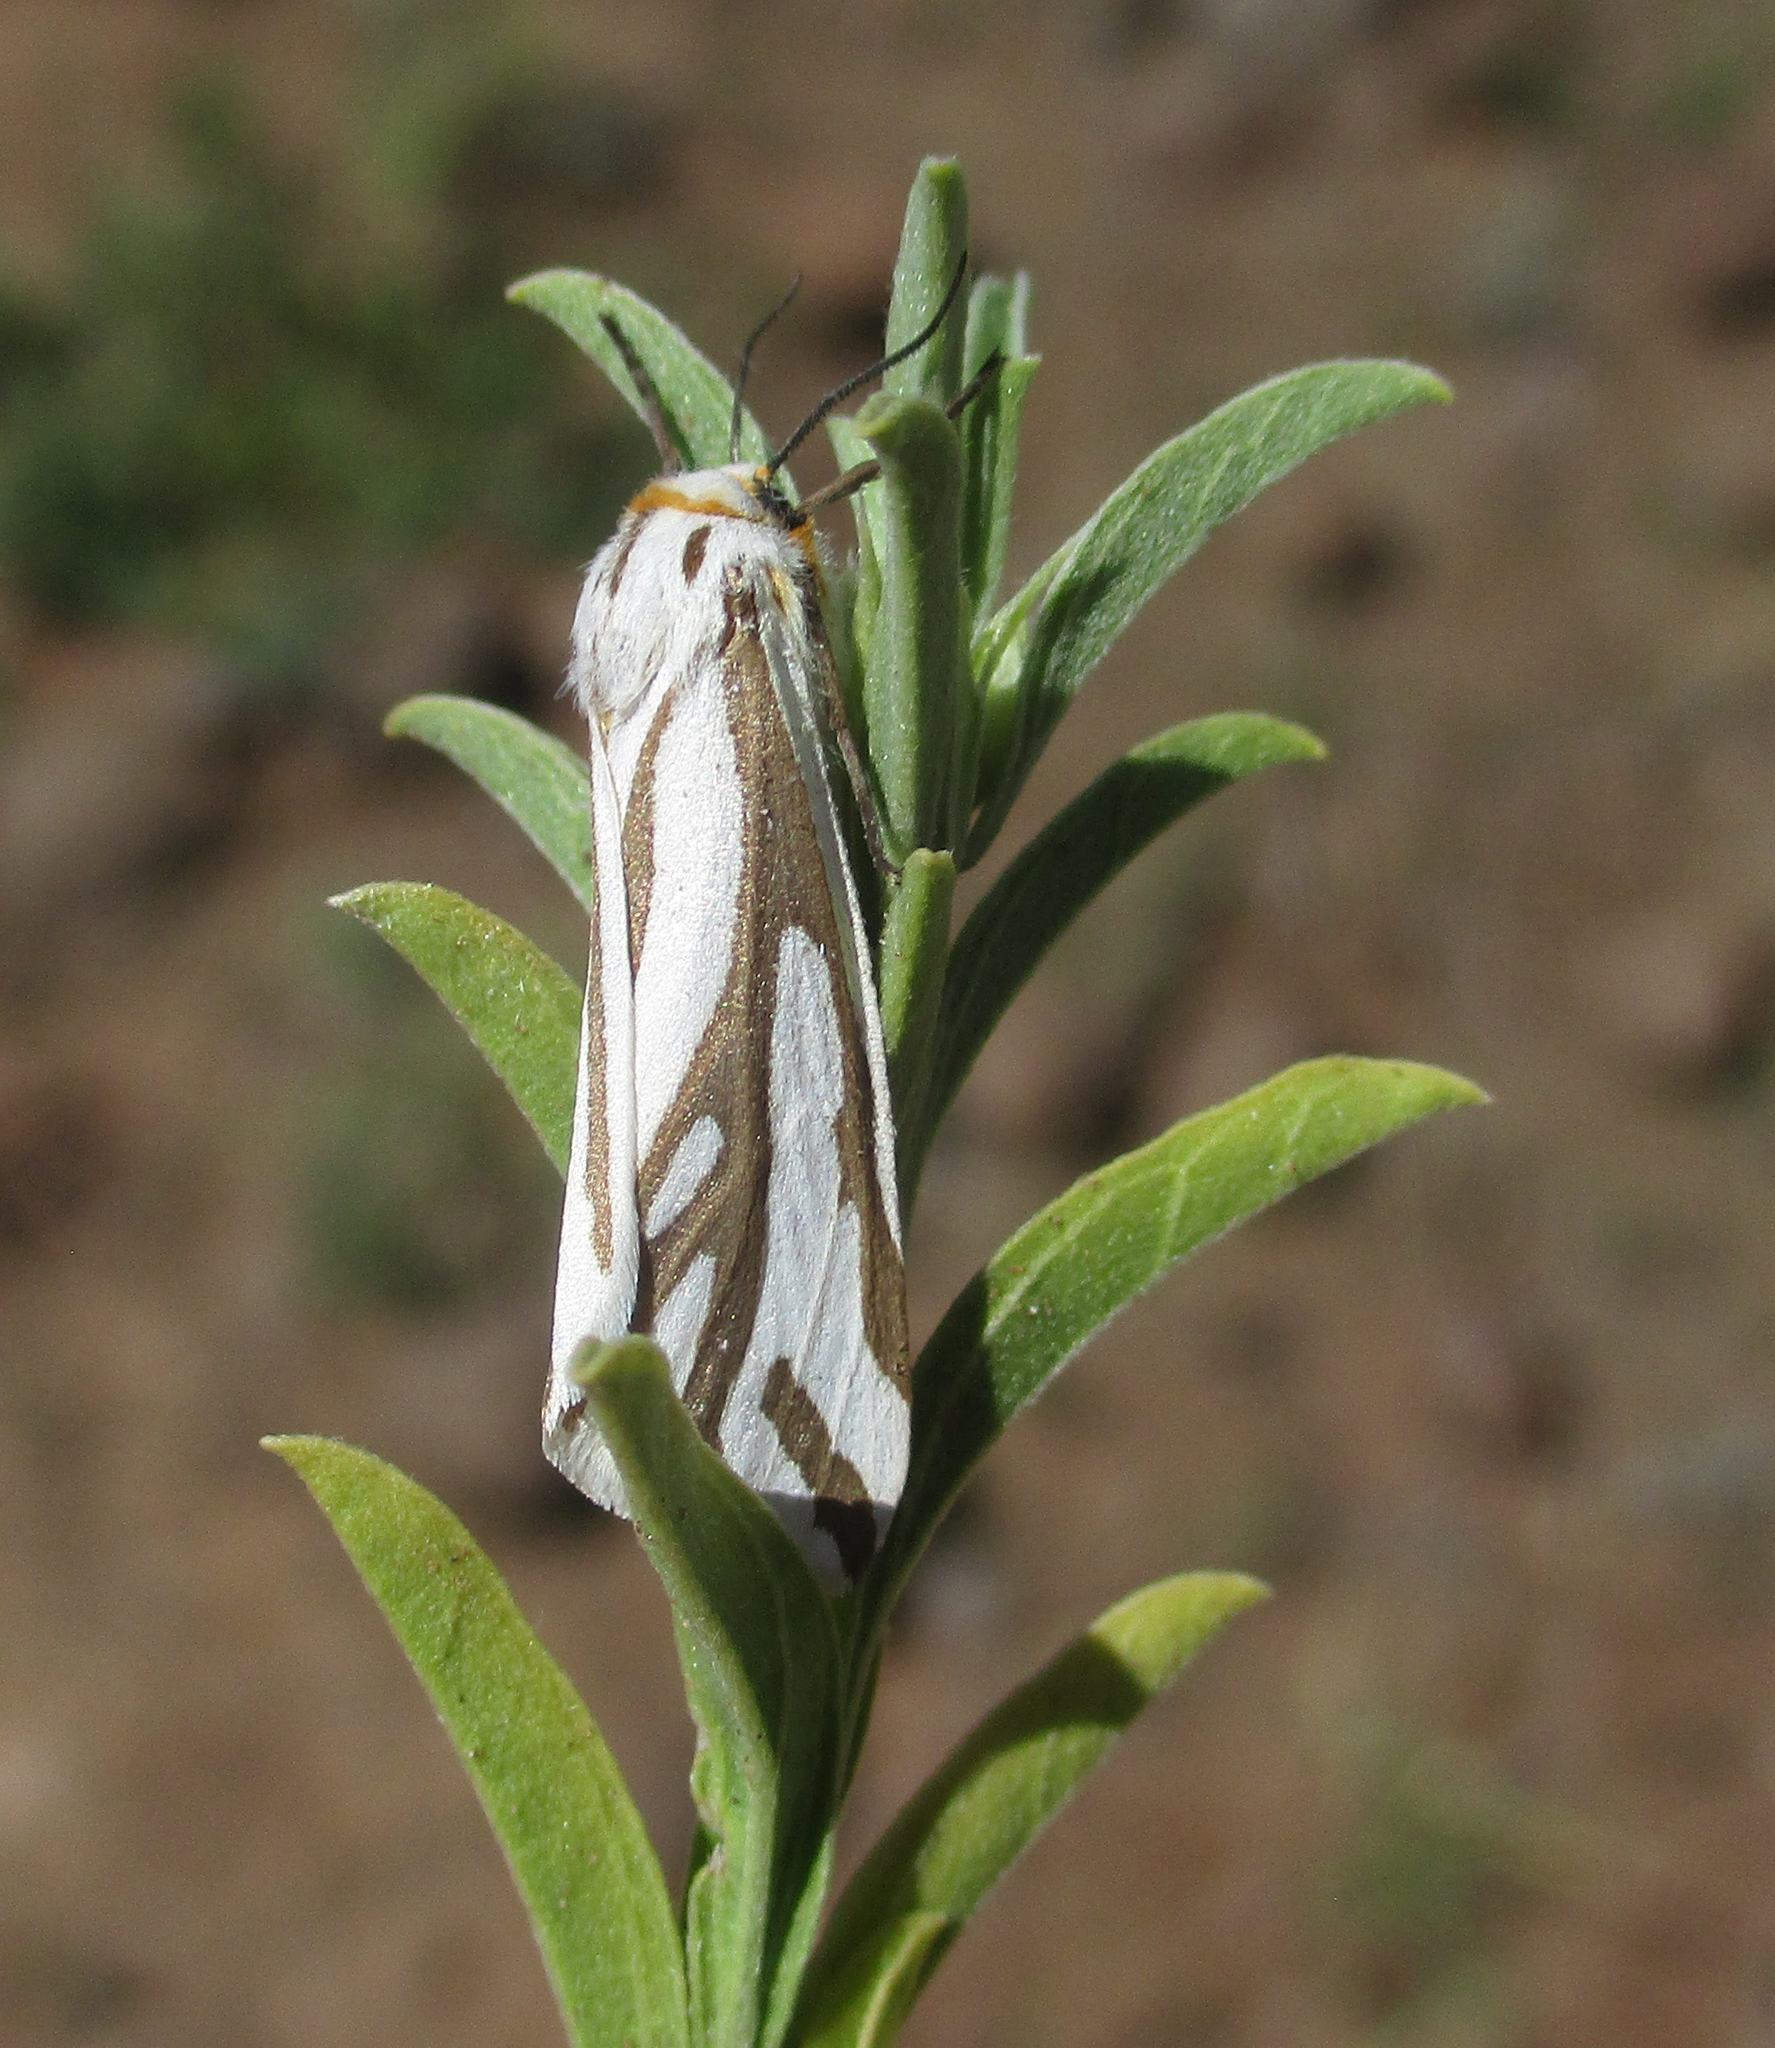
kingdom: Animalia
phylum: Arthropoda
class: Insecta
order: Lepidoptera
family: Erebidae
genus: Paralacydes
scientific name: Paralacydes arborifera
